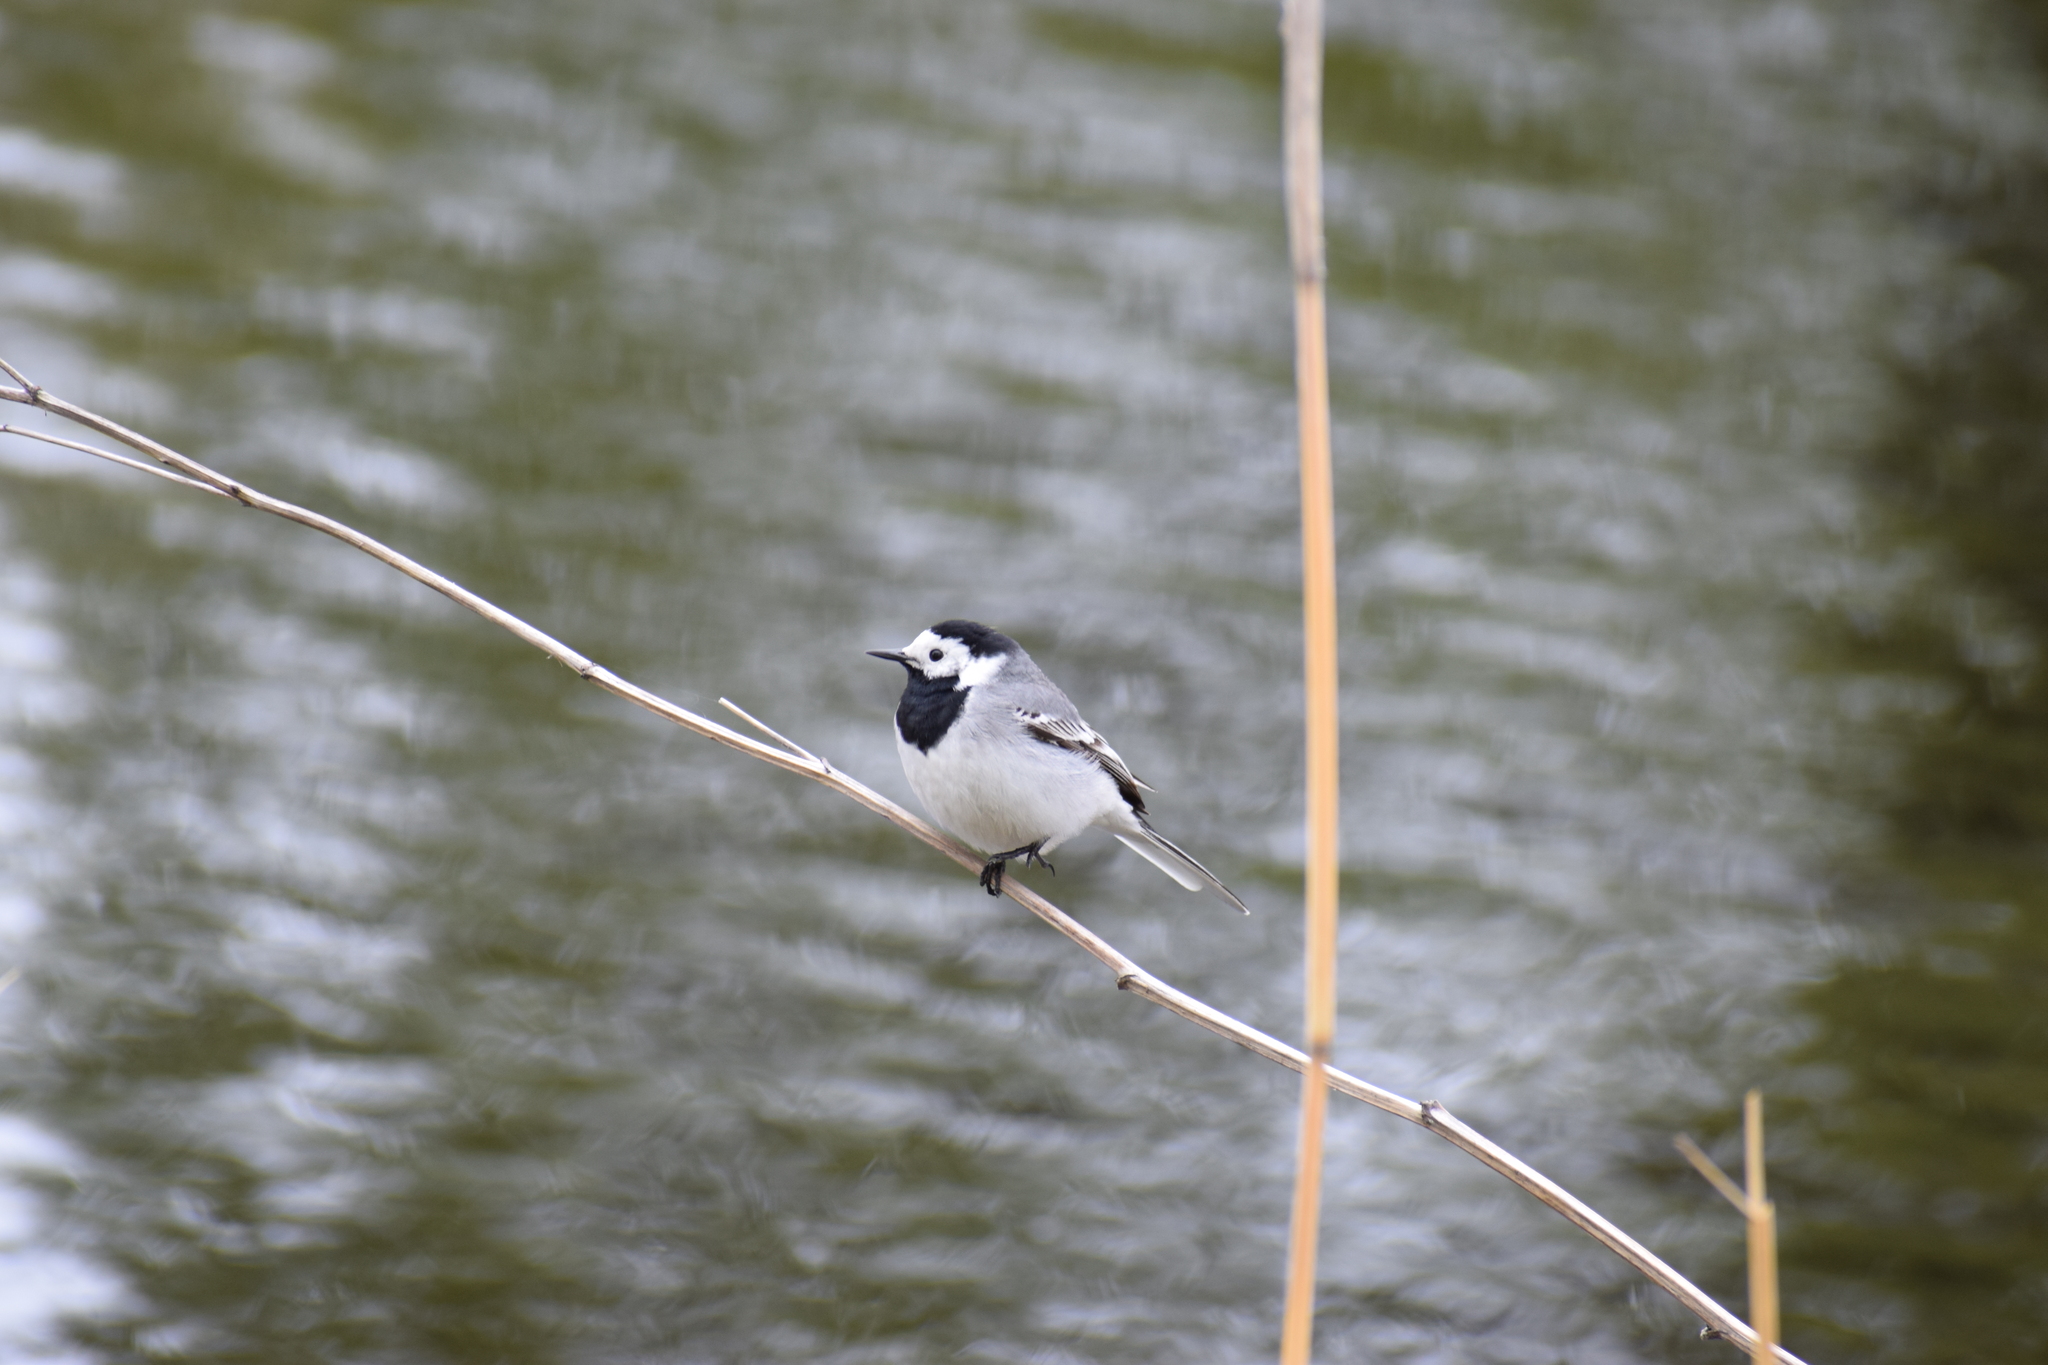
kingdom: Animalia
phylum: Chordata
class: Aves
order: Passeriformes
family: Motacillidae
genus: Motacilla
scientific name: Motacilla alba
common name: White wagtail
